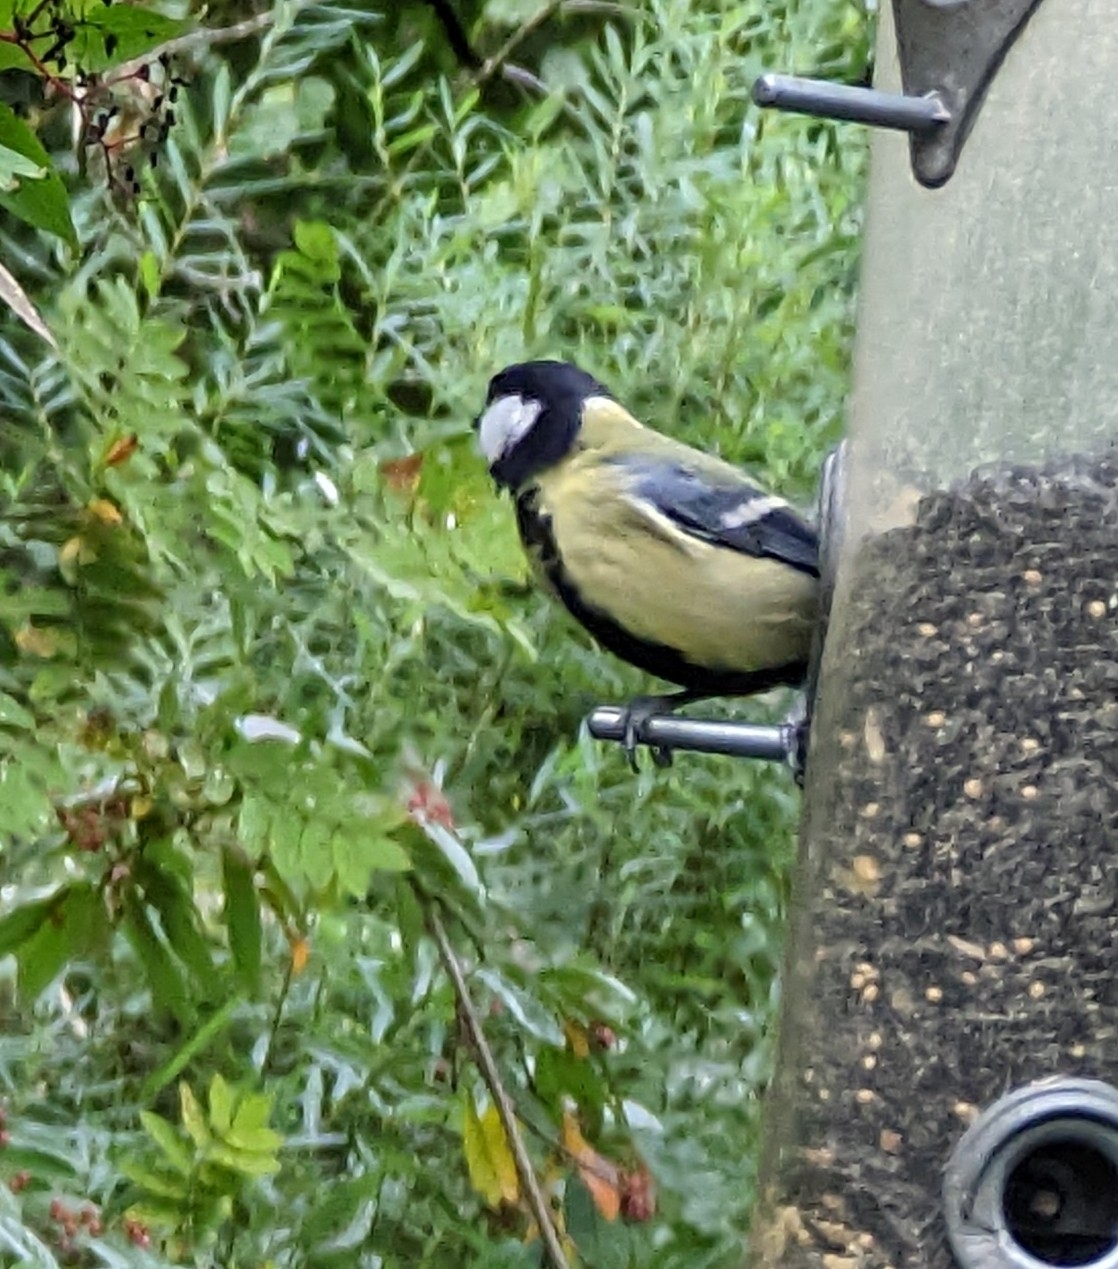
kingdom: Animalia
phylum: Chordata
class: Aves
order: Passeriformes
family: Paridae
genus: Parus
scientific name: Parus major
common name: Great tit
